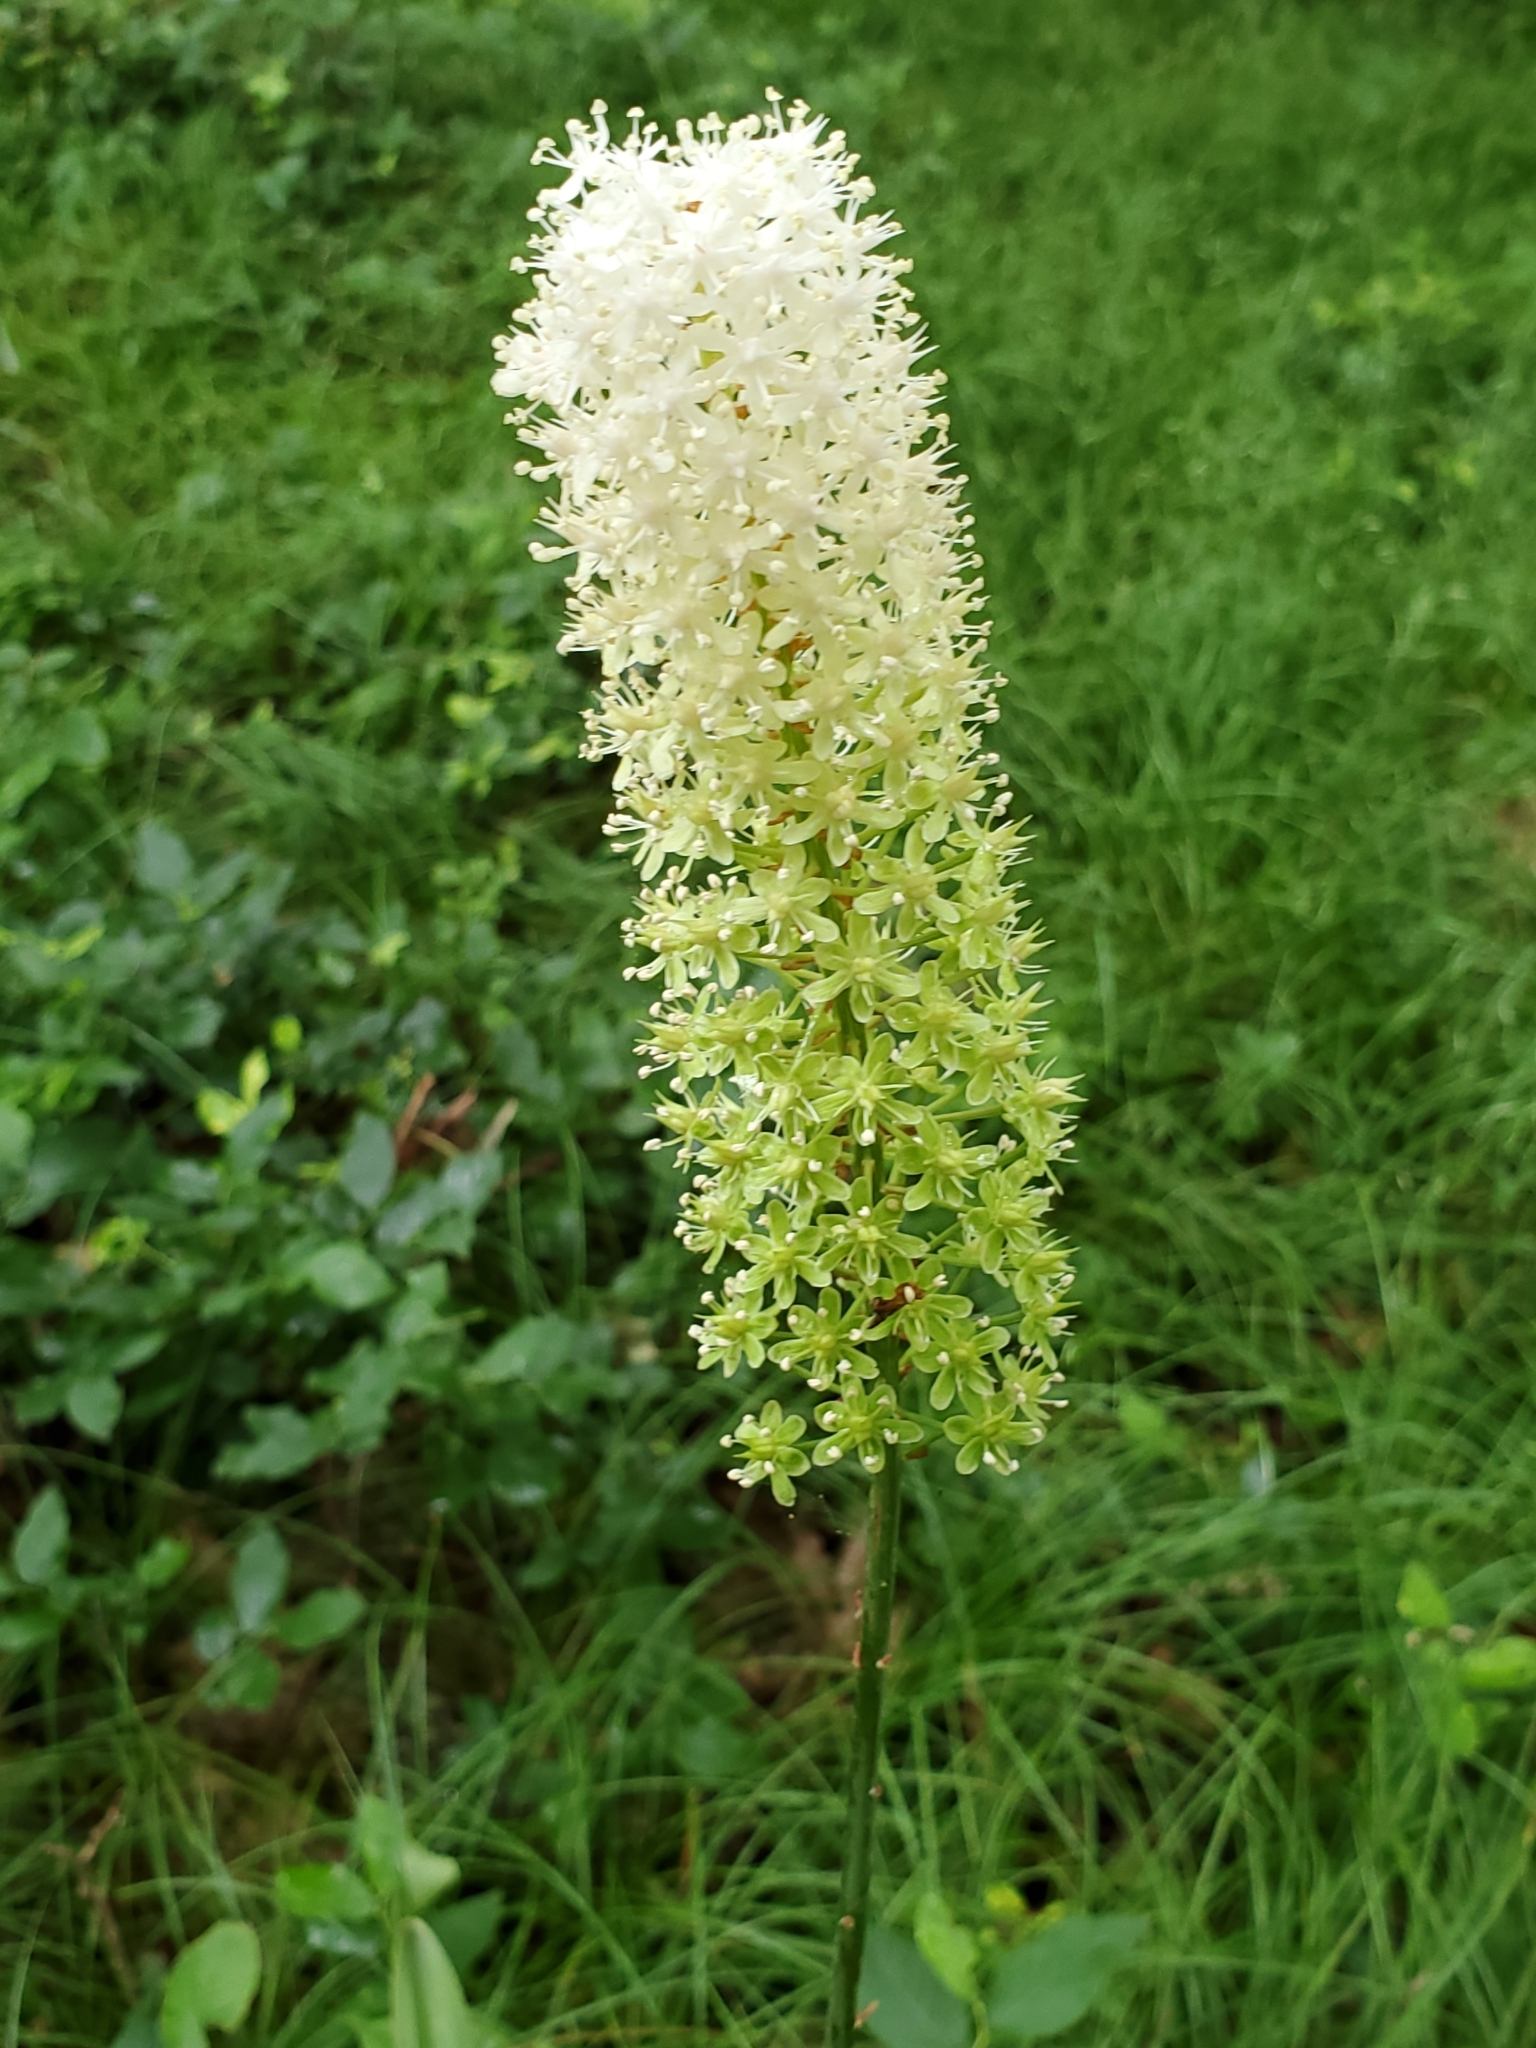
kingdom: Plantae
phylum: Tracheophyta
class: Liliopsida
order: Liliales
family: Melanthiaceae
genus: Amianthium
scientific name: Amianthium muscitoxicum
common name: Fly-poison
